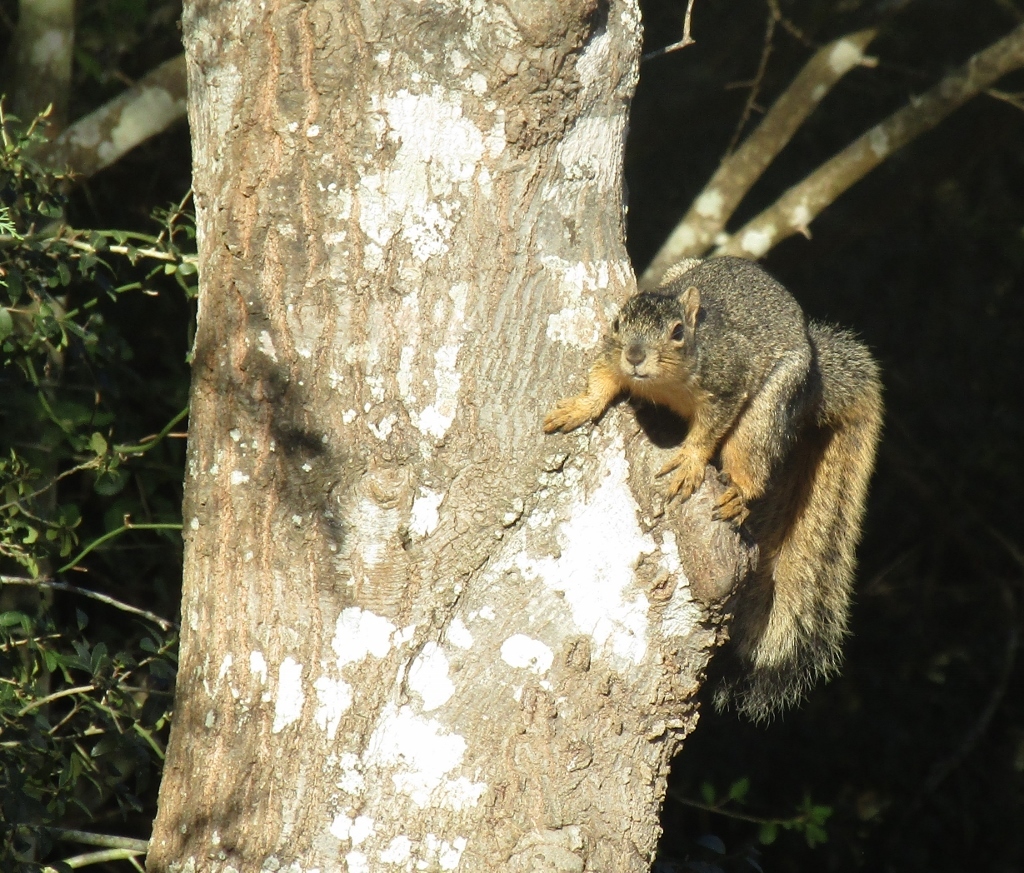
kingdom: Animalia
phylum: Chordata
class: Mammalia
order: Rodentia
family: Sciuridae
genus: Sciurus
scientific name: Sciurus niger
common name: Fox squirrel
